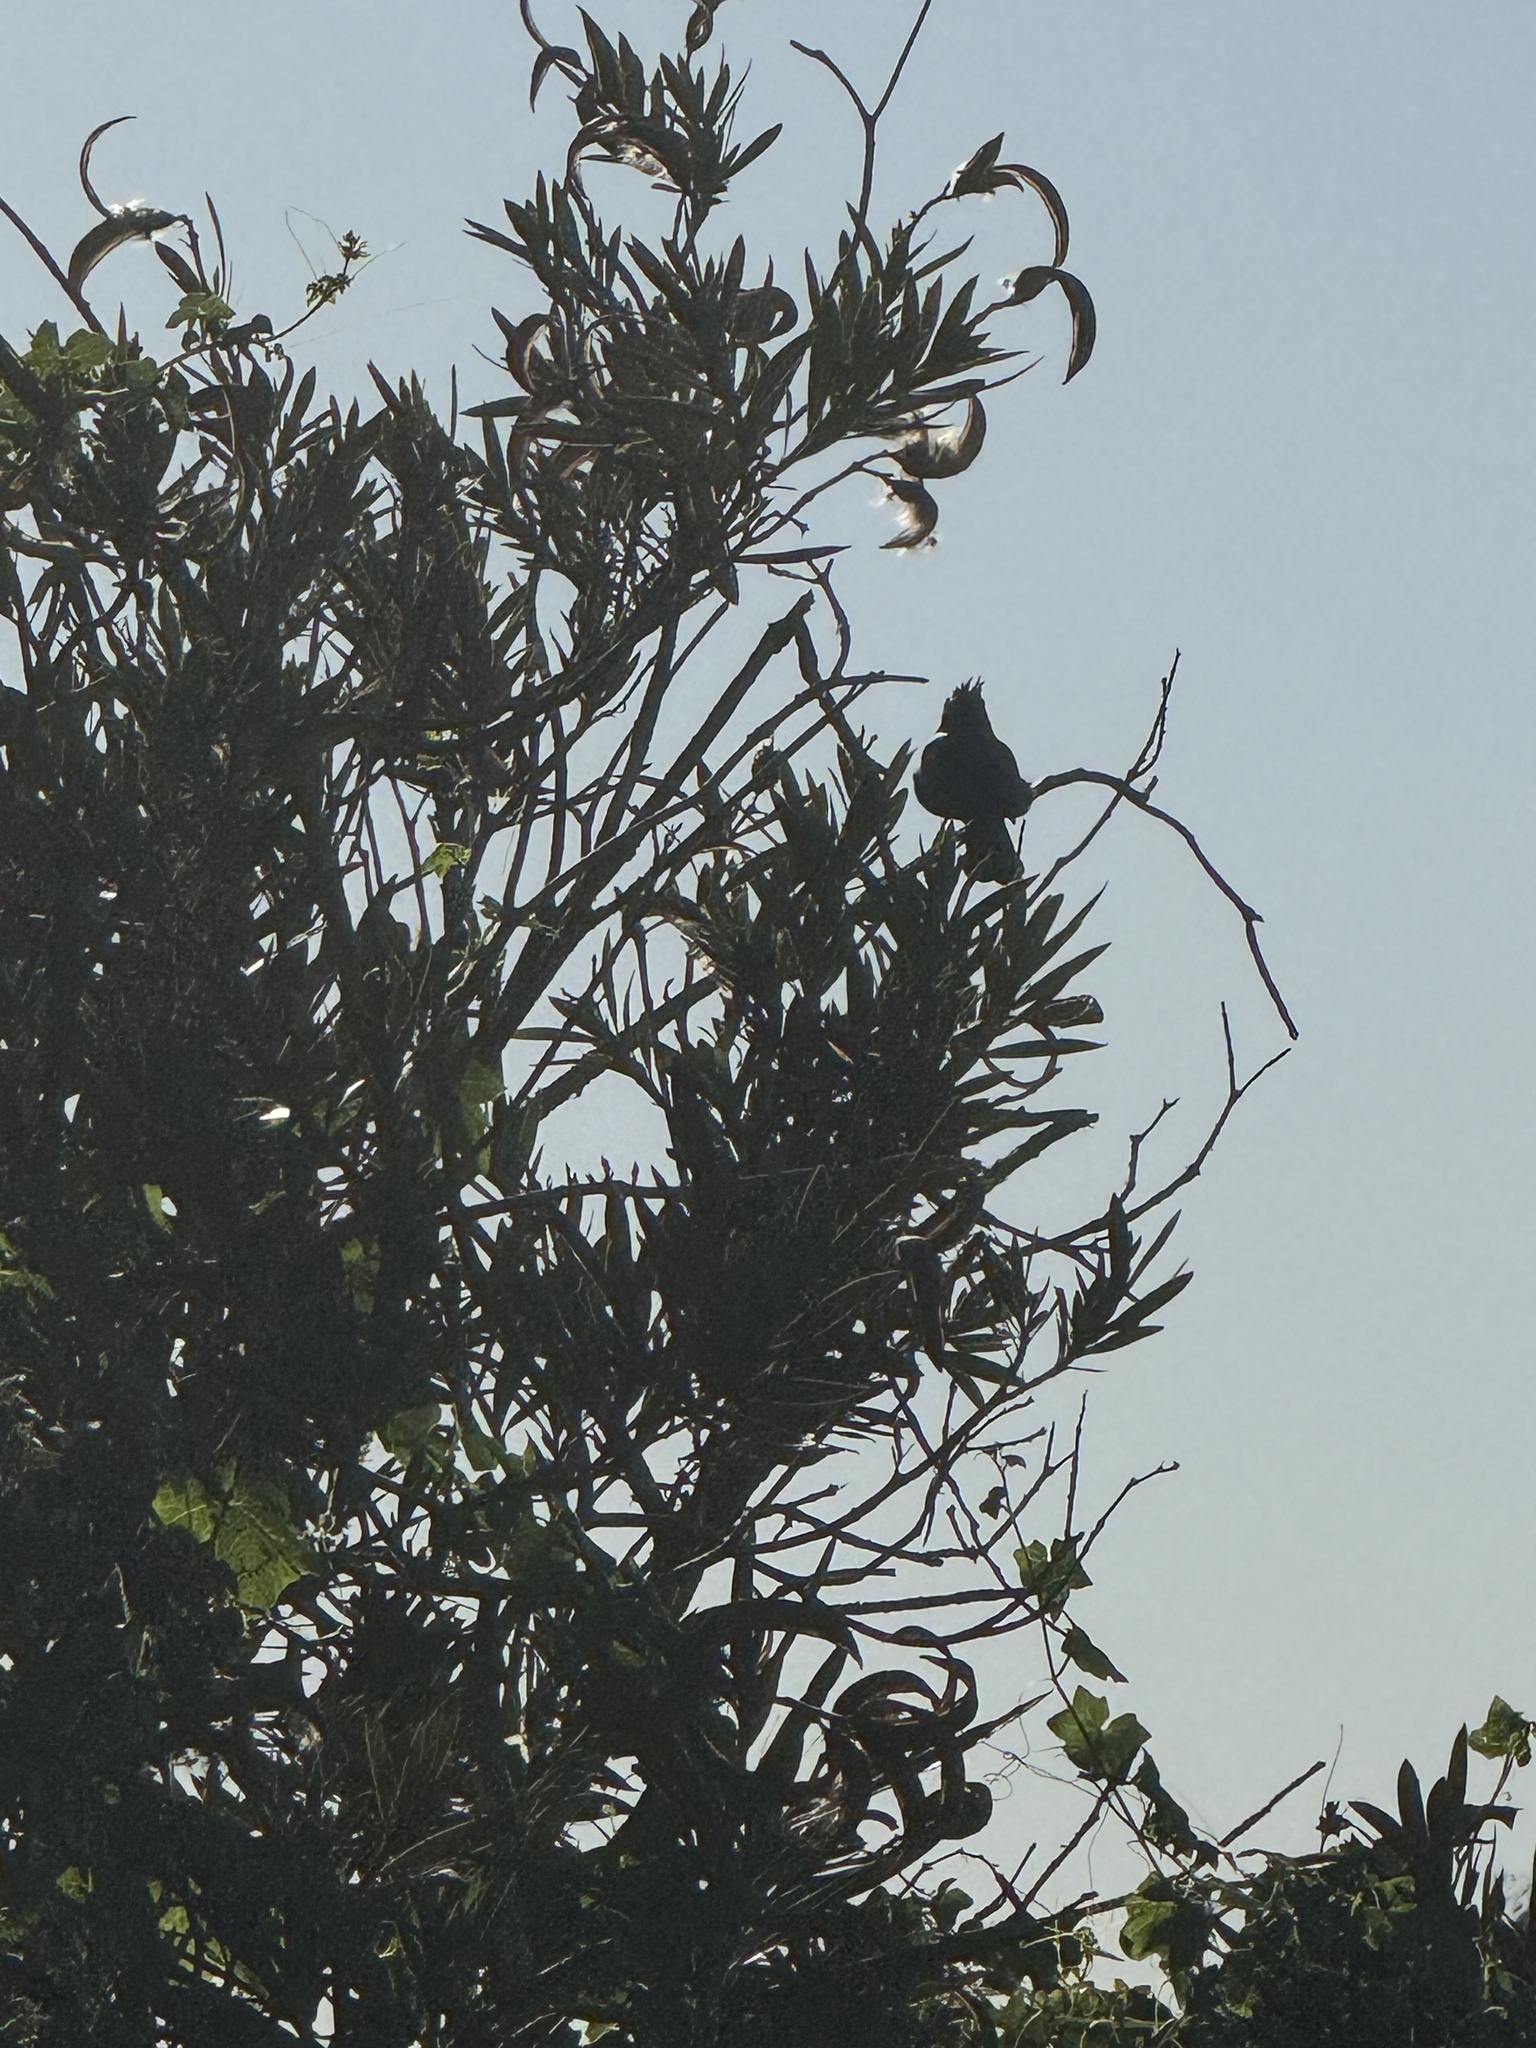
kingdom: Animalia
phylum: Chordata
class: Aves
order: Passeriformes
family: Ptilogonatidae
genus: Phainopepla
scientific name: Phainopepla nitens
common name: Phainopepla
